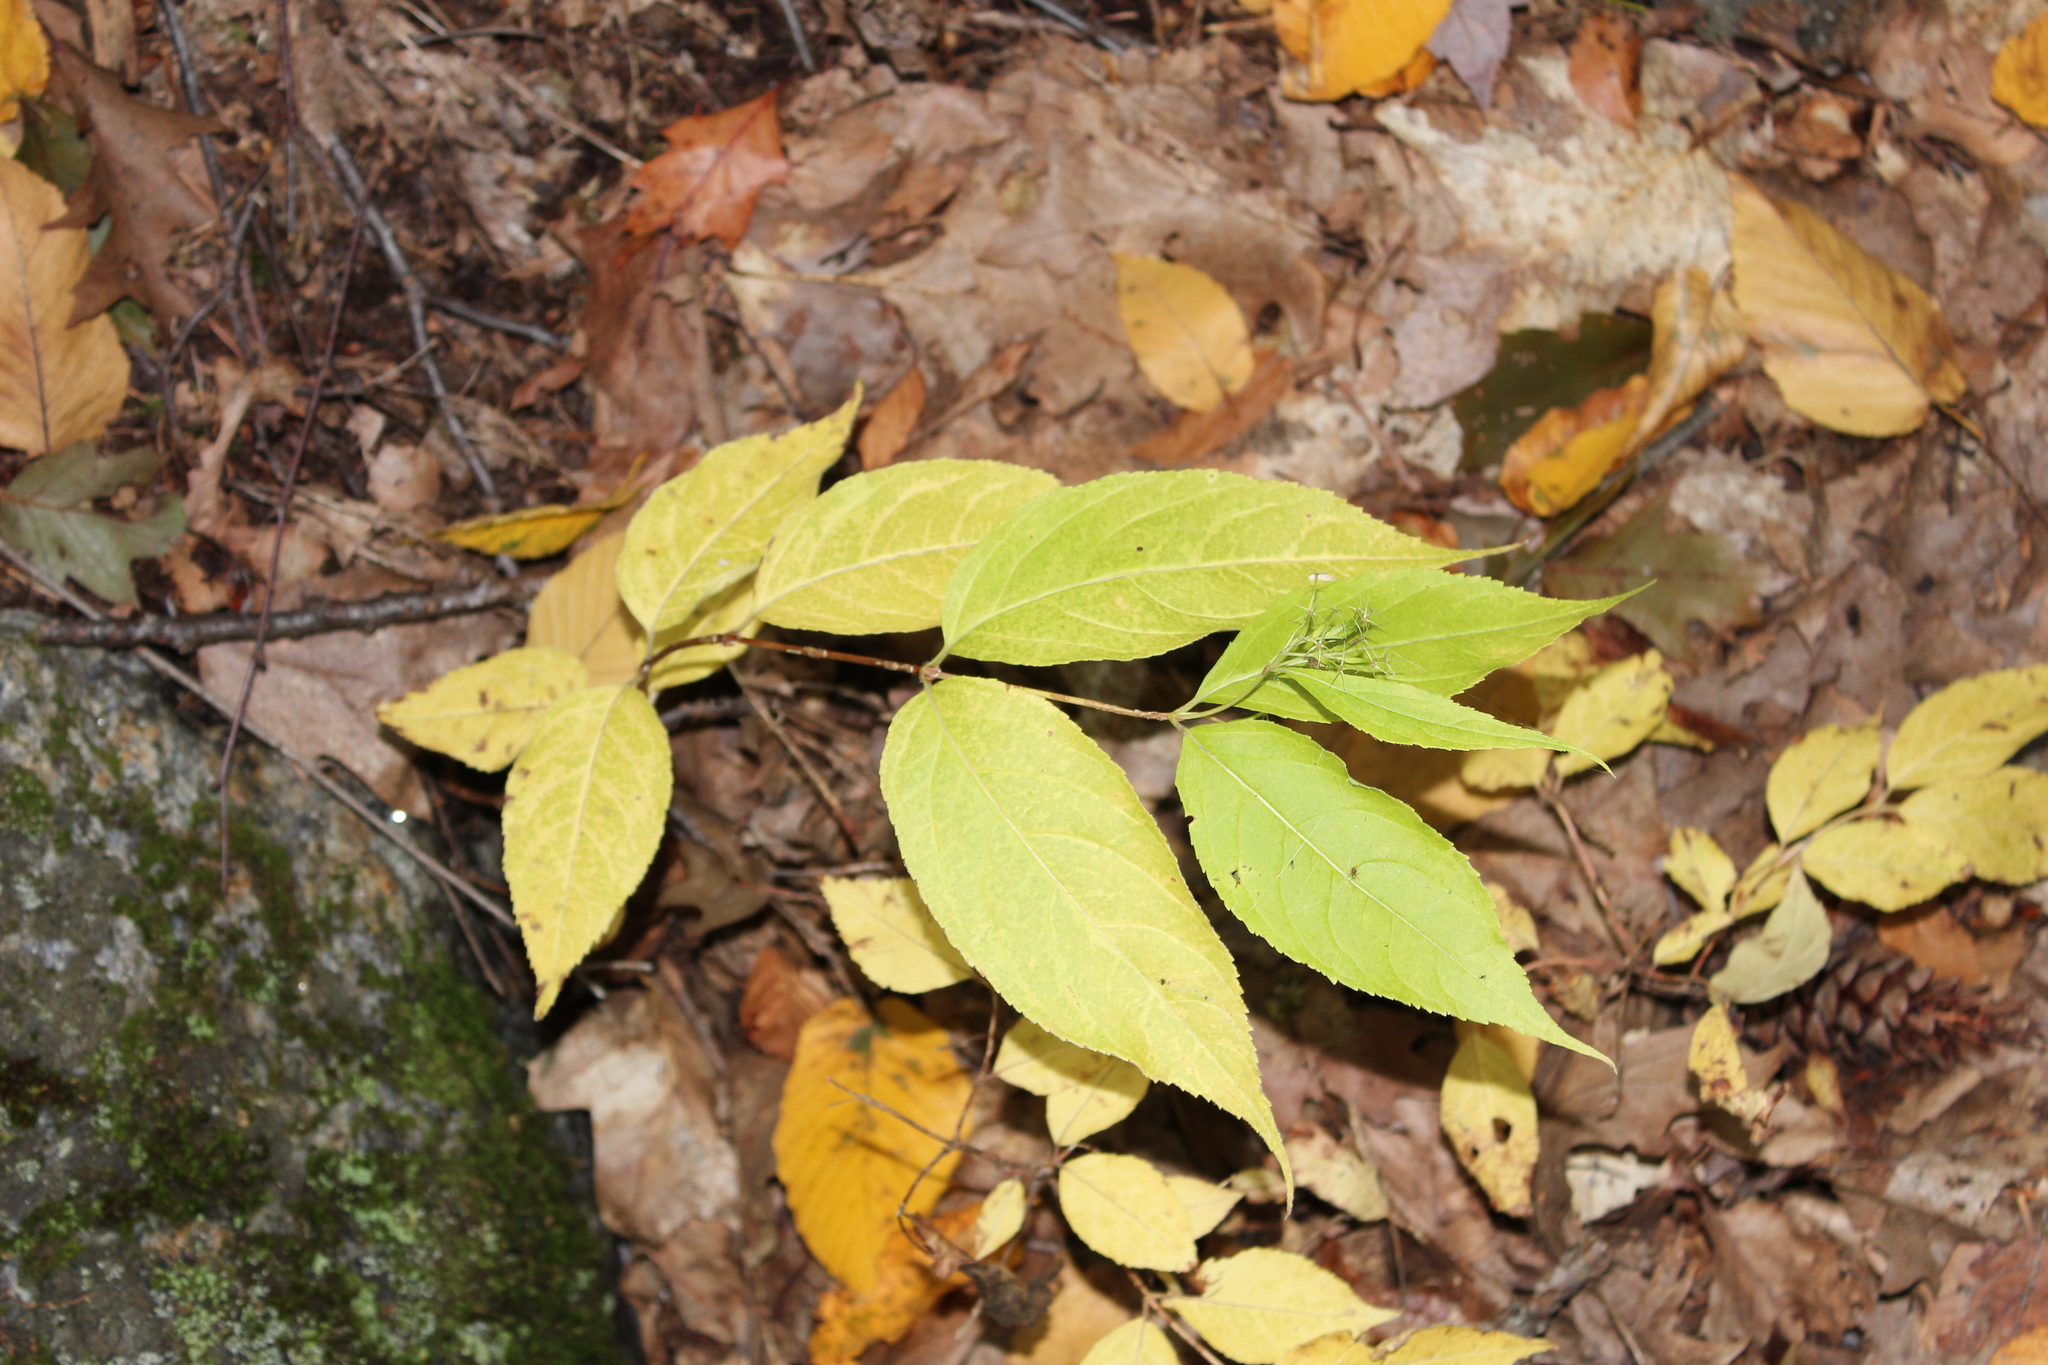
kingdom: Plantae
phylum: Tracheophyta
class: Magnoliopsida
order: Dipsacales
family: Caprifoliaceae
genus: Diervilla
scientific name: Diervilla lonicera
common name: Bush-honeysuckle
